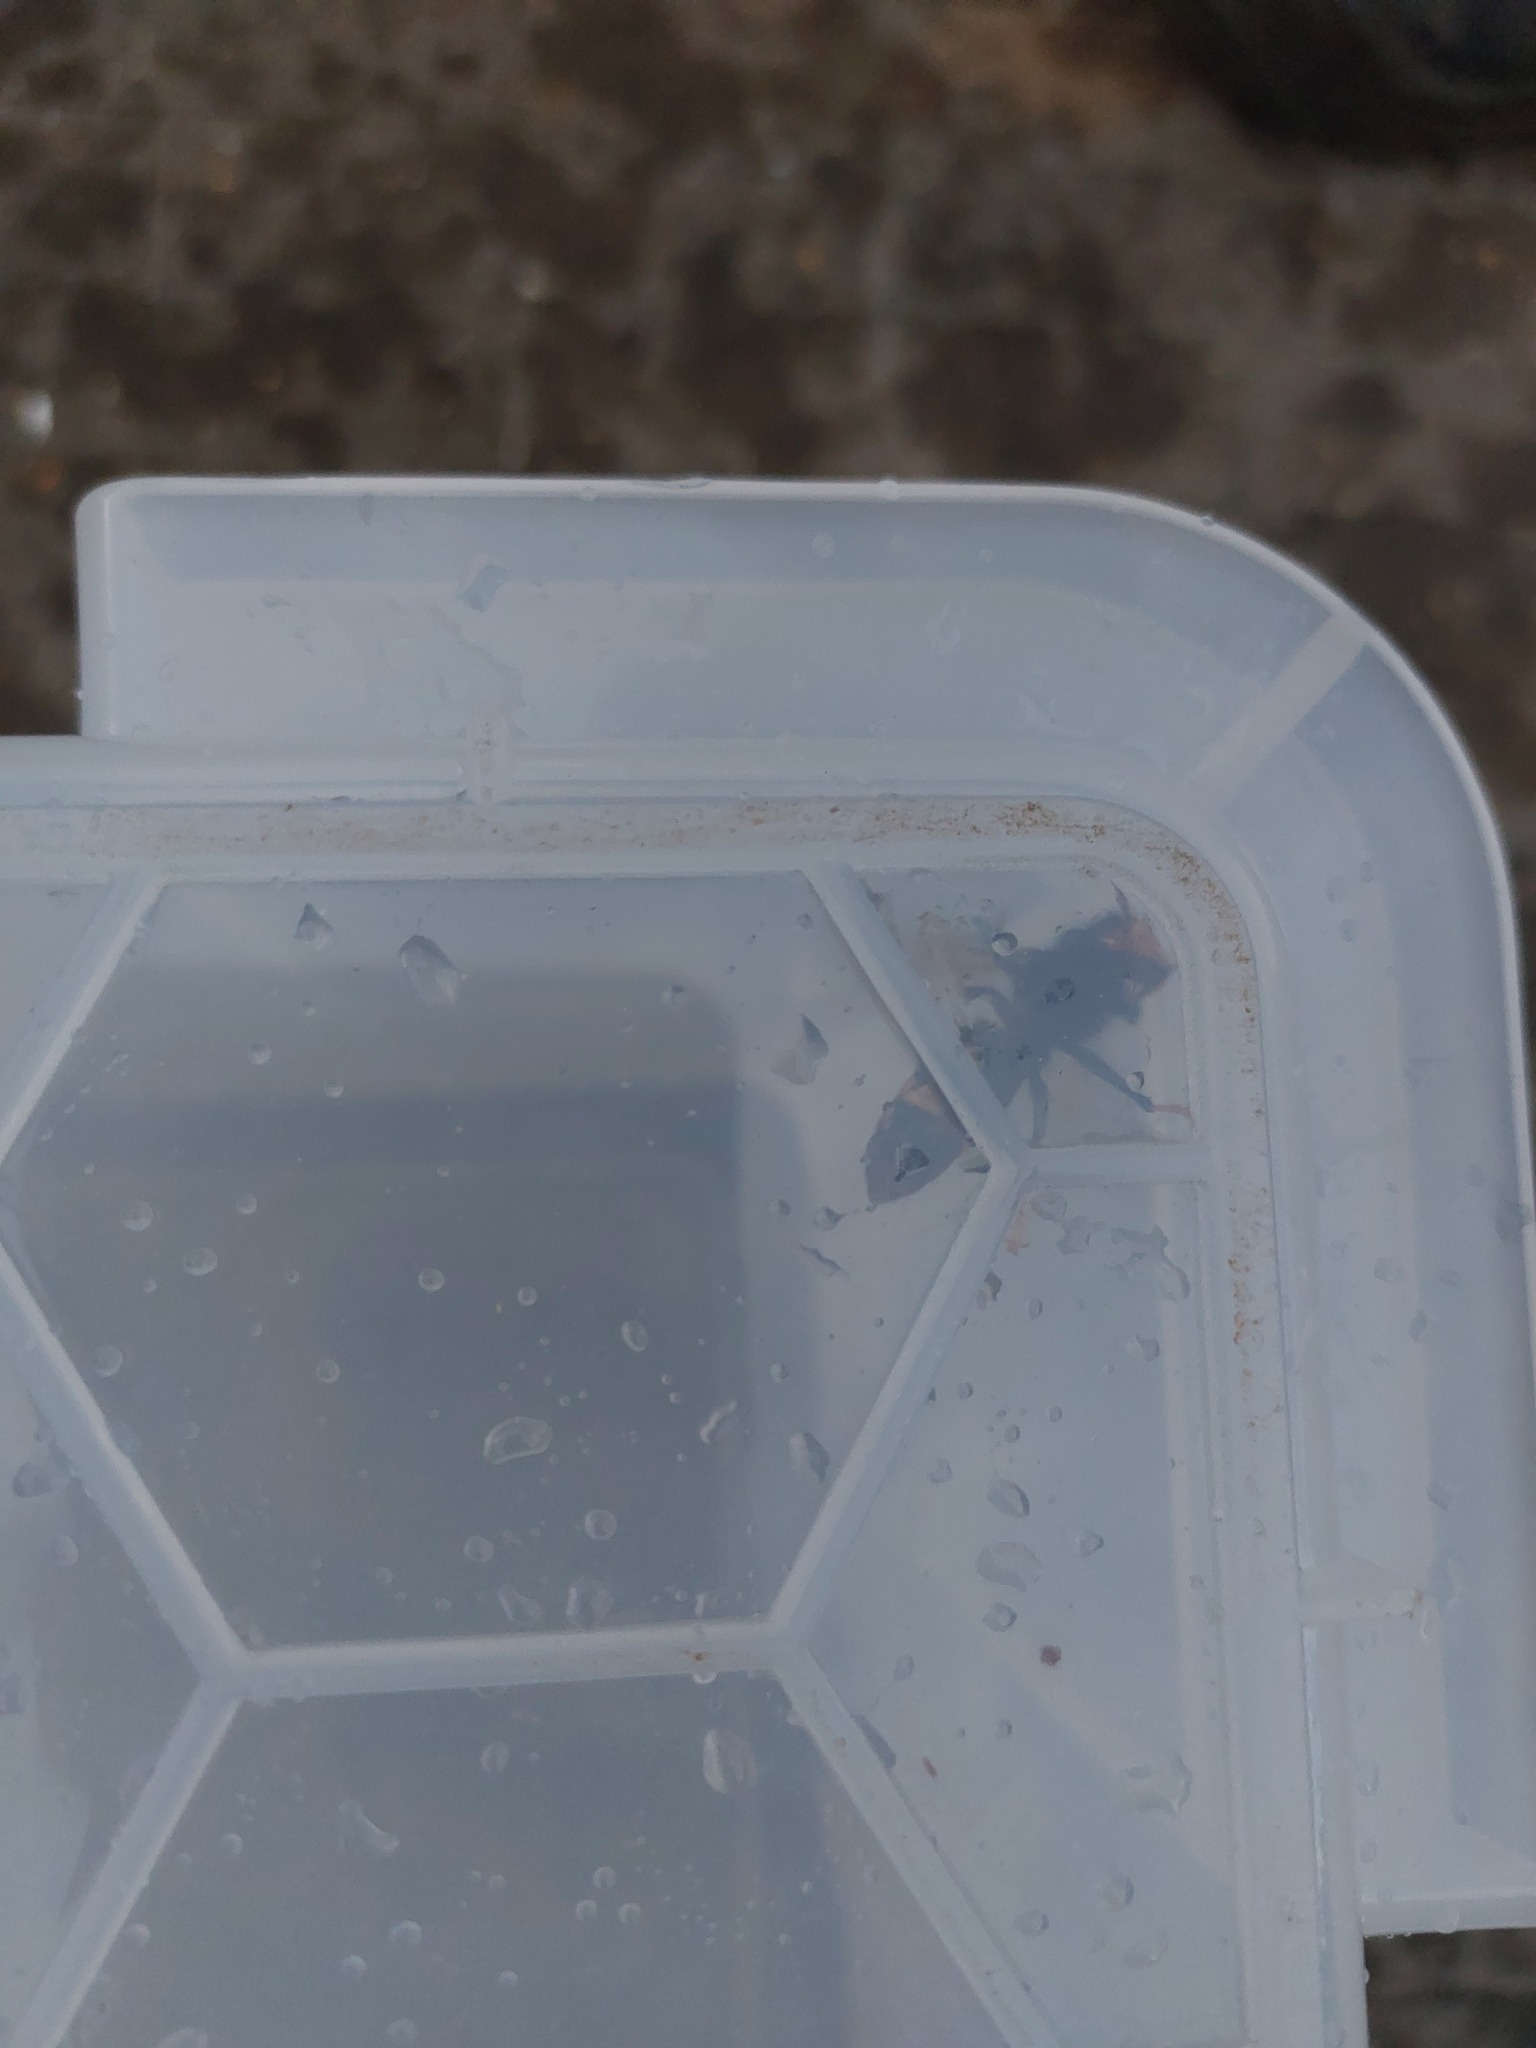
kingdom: Animalia
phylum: Arthropoda
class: Insecta
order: Hymenoptera
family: Vespidae
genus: Vespa
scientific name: Vespa velutina
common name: Asian hornet
